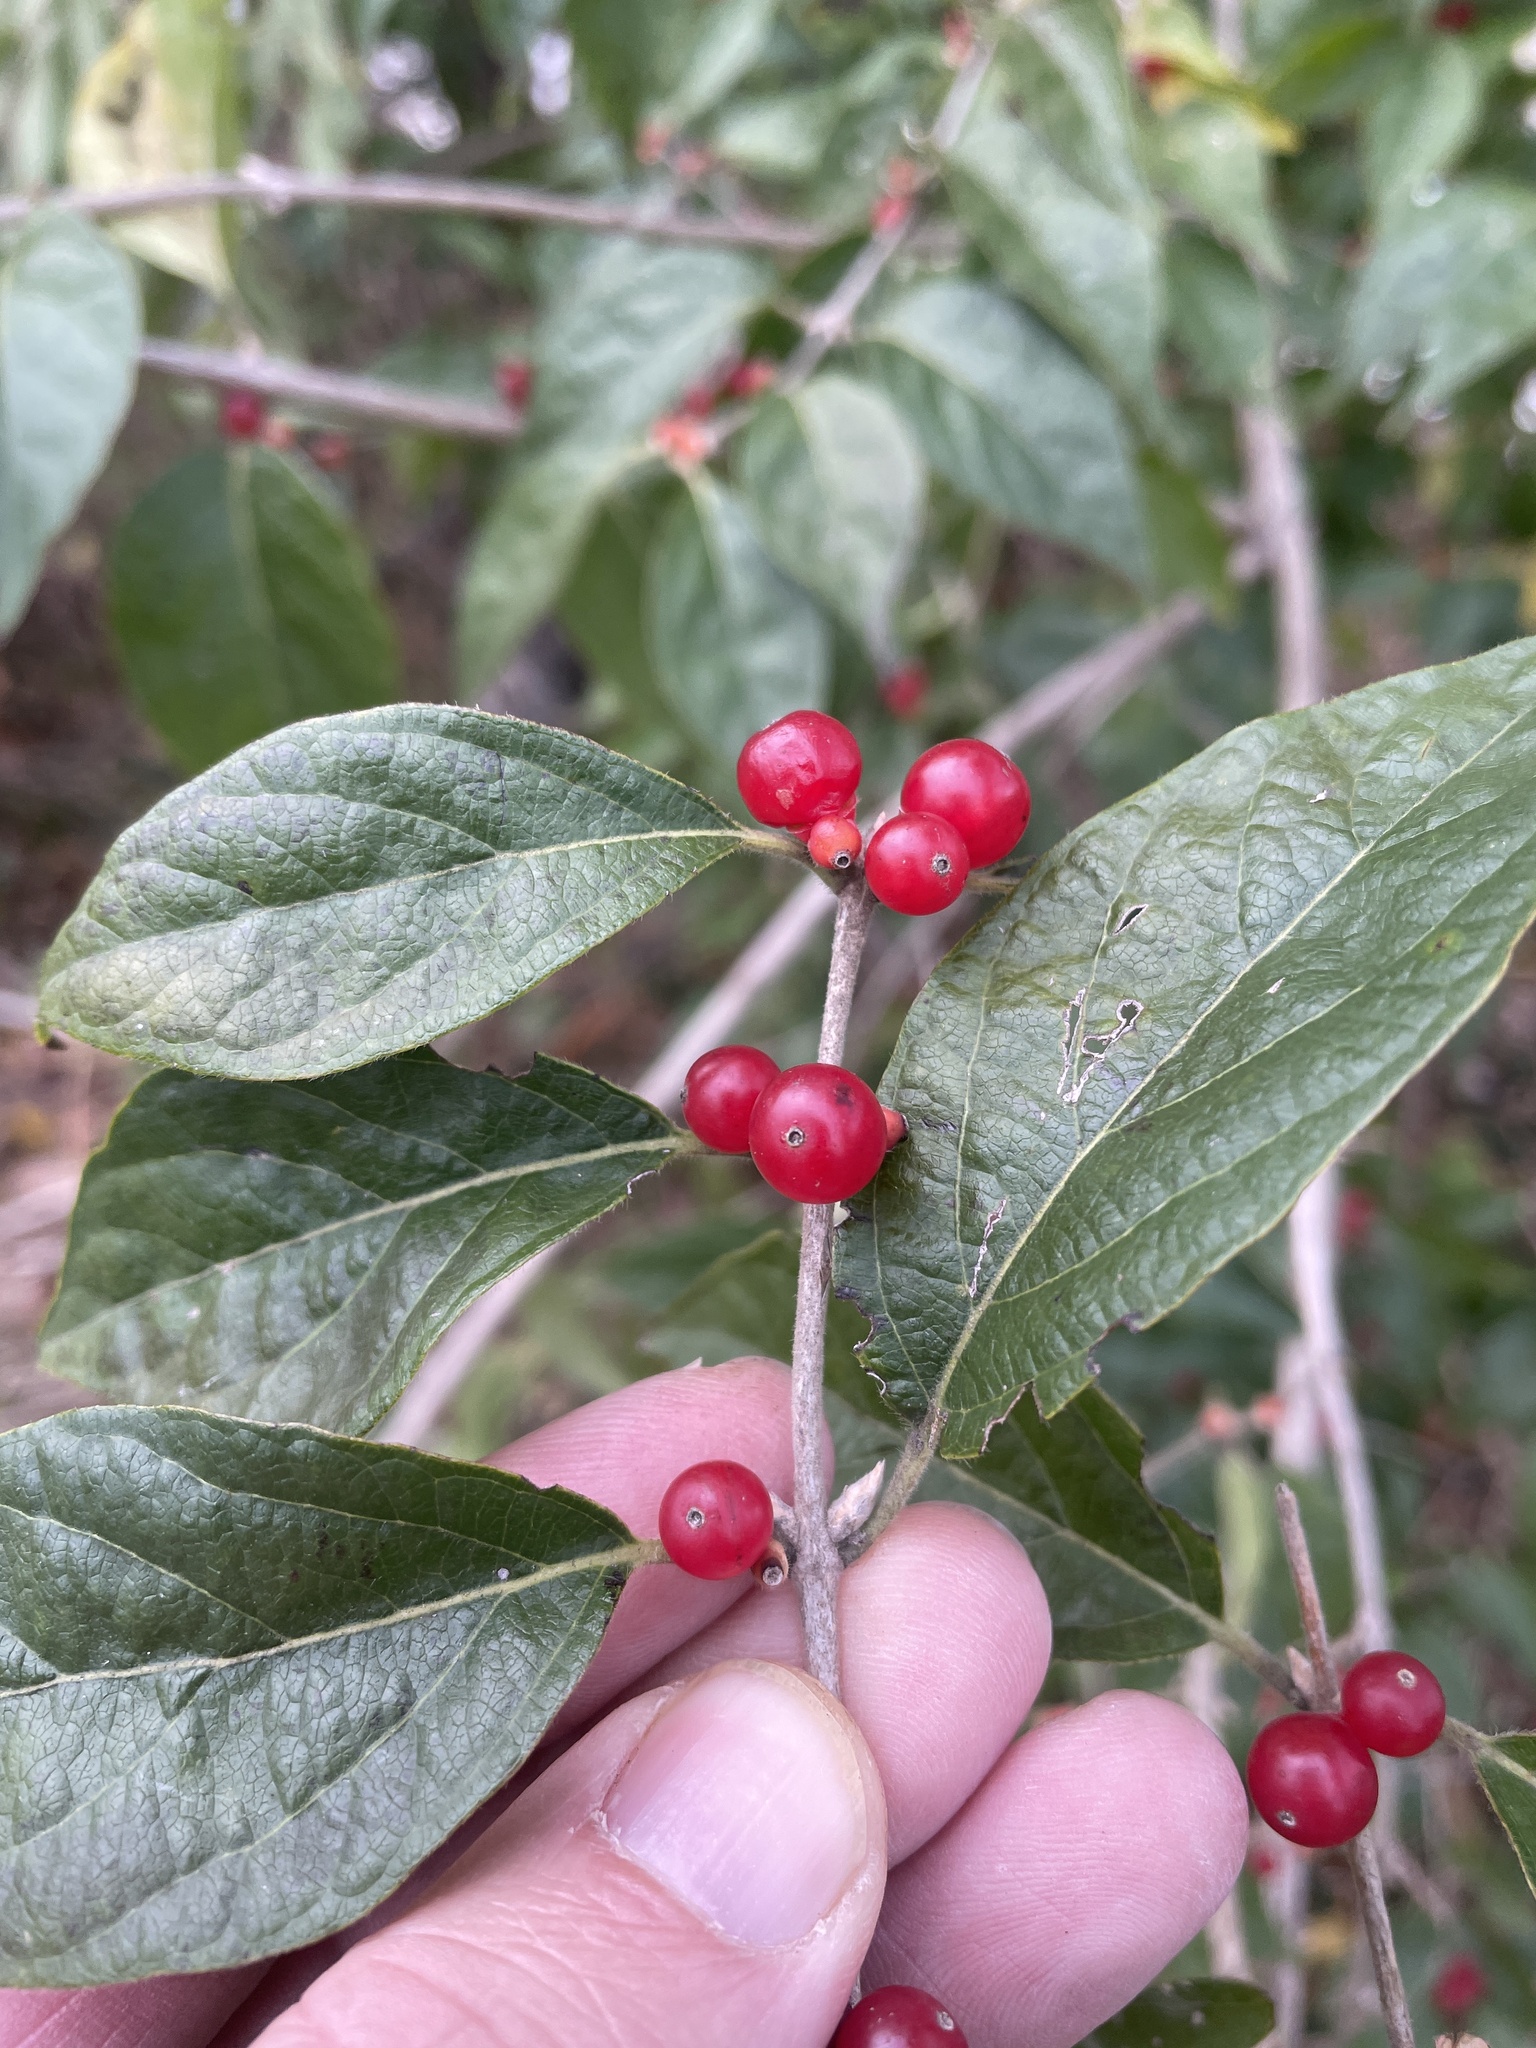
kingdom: Plantae
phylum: Tracheophyta
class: Magnoliopsida
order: Dipsacales
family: Caprifoliaceae
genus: Lonicera
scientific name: Lonicera maackii
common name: Amur honeysuckle
